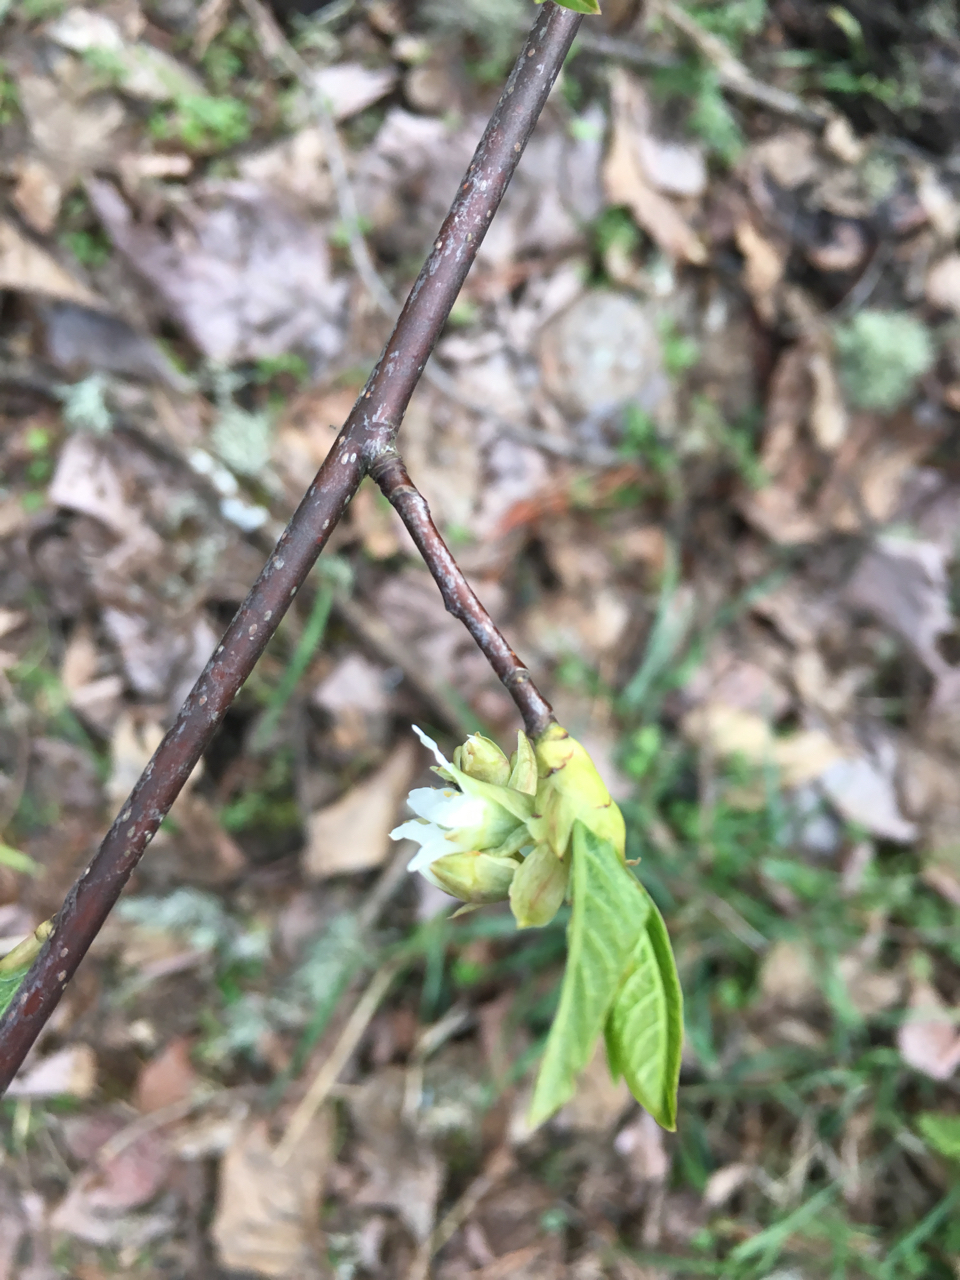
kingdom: Plantae
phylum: Tracheophyta
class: Magnoliopsida
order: Rosales
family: Rosaceae
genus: Oemleria
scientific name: Oemleria cerasiformis
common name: Osoberry
